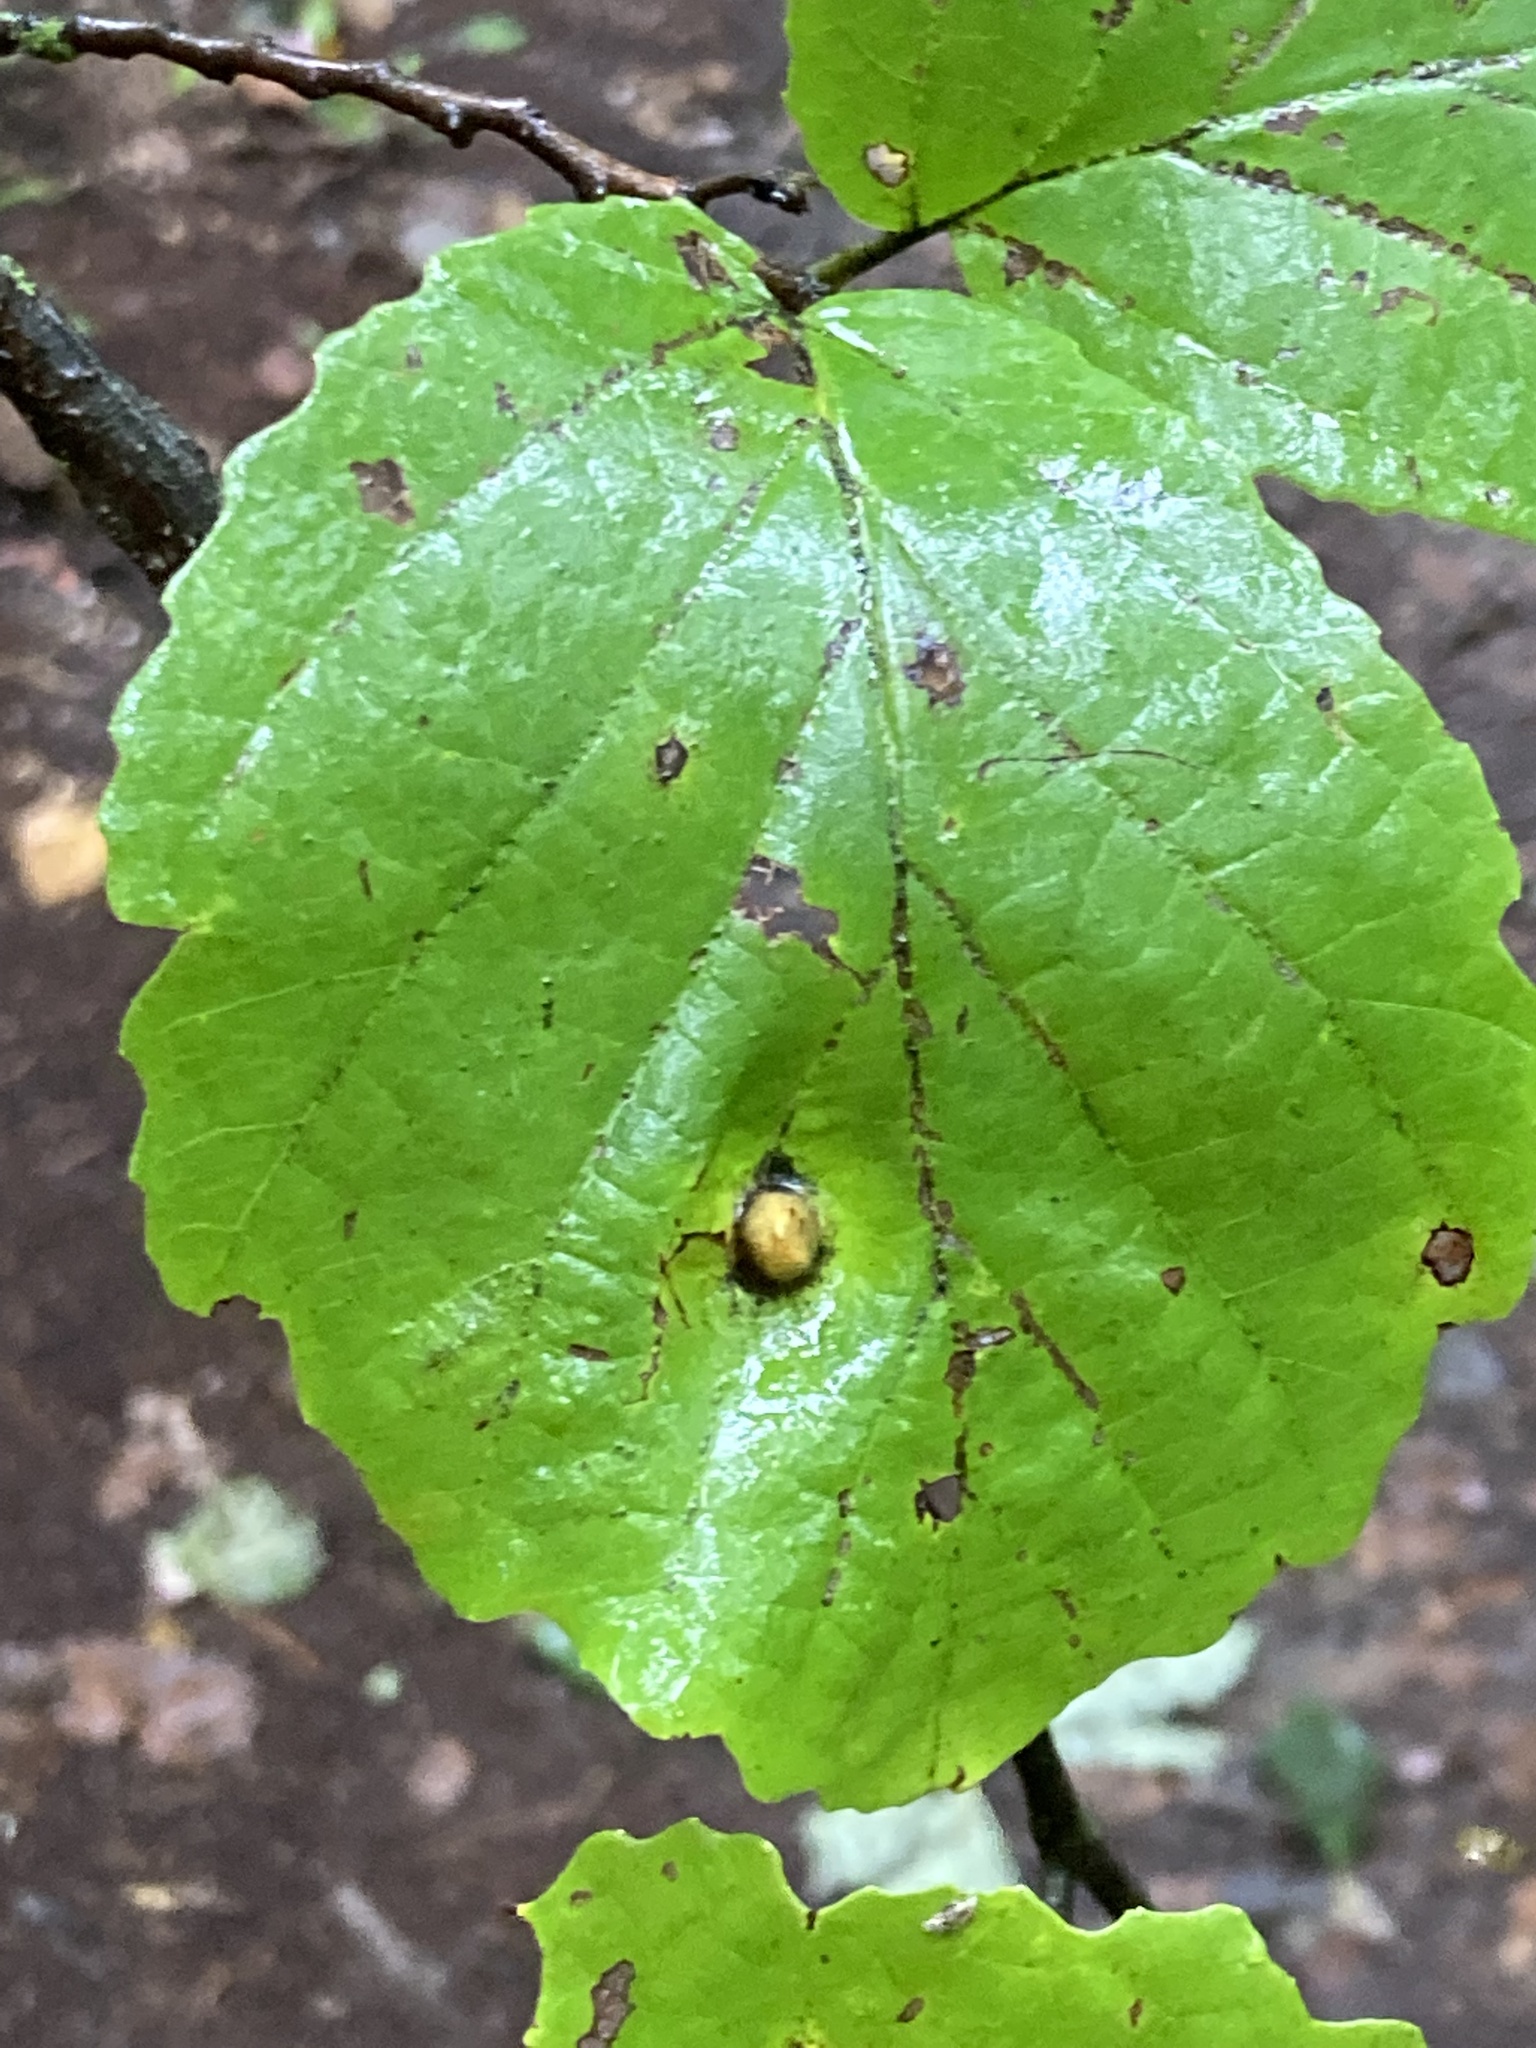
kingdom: Plantae
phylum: Tracheophyta
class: Magnoliopsida
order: Saxifragales
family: Hamamelidaceae
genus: Hamamelis
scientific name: Hamamelis virginiana
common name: Witch-hazel
